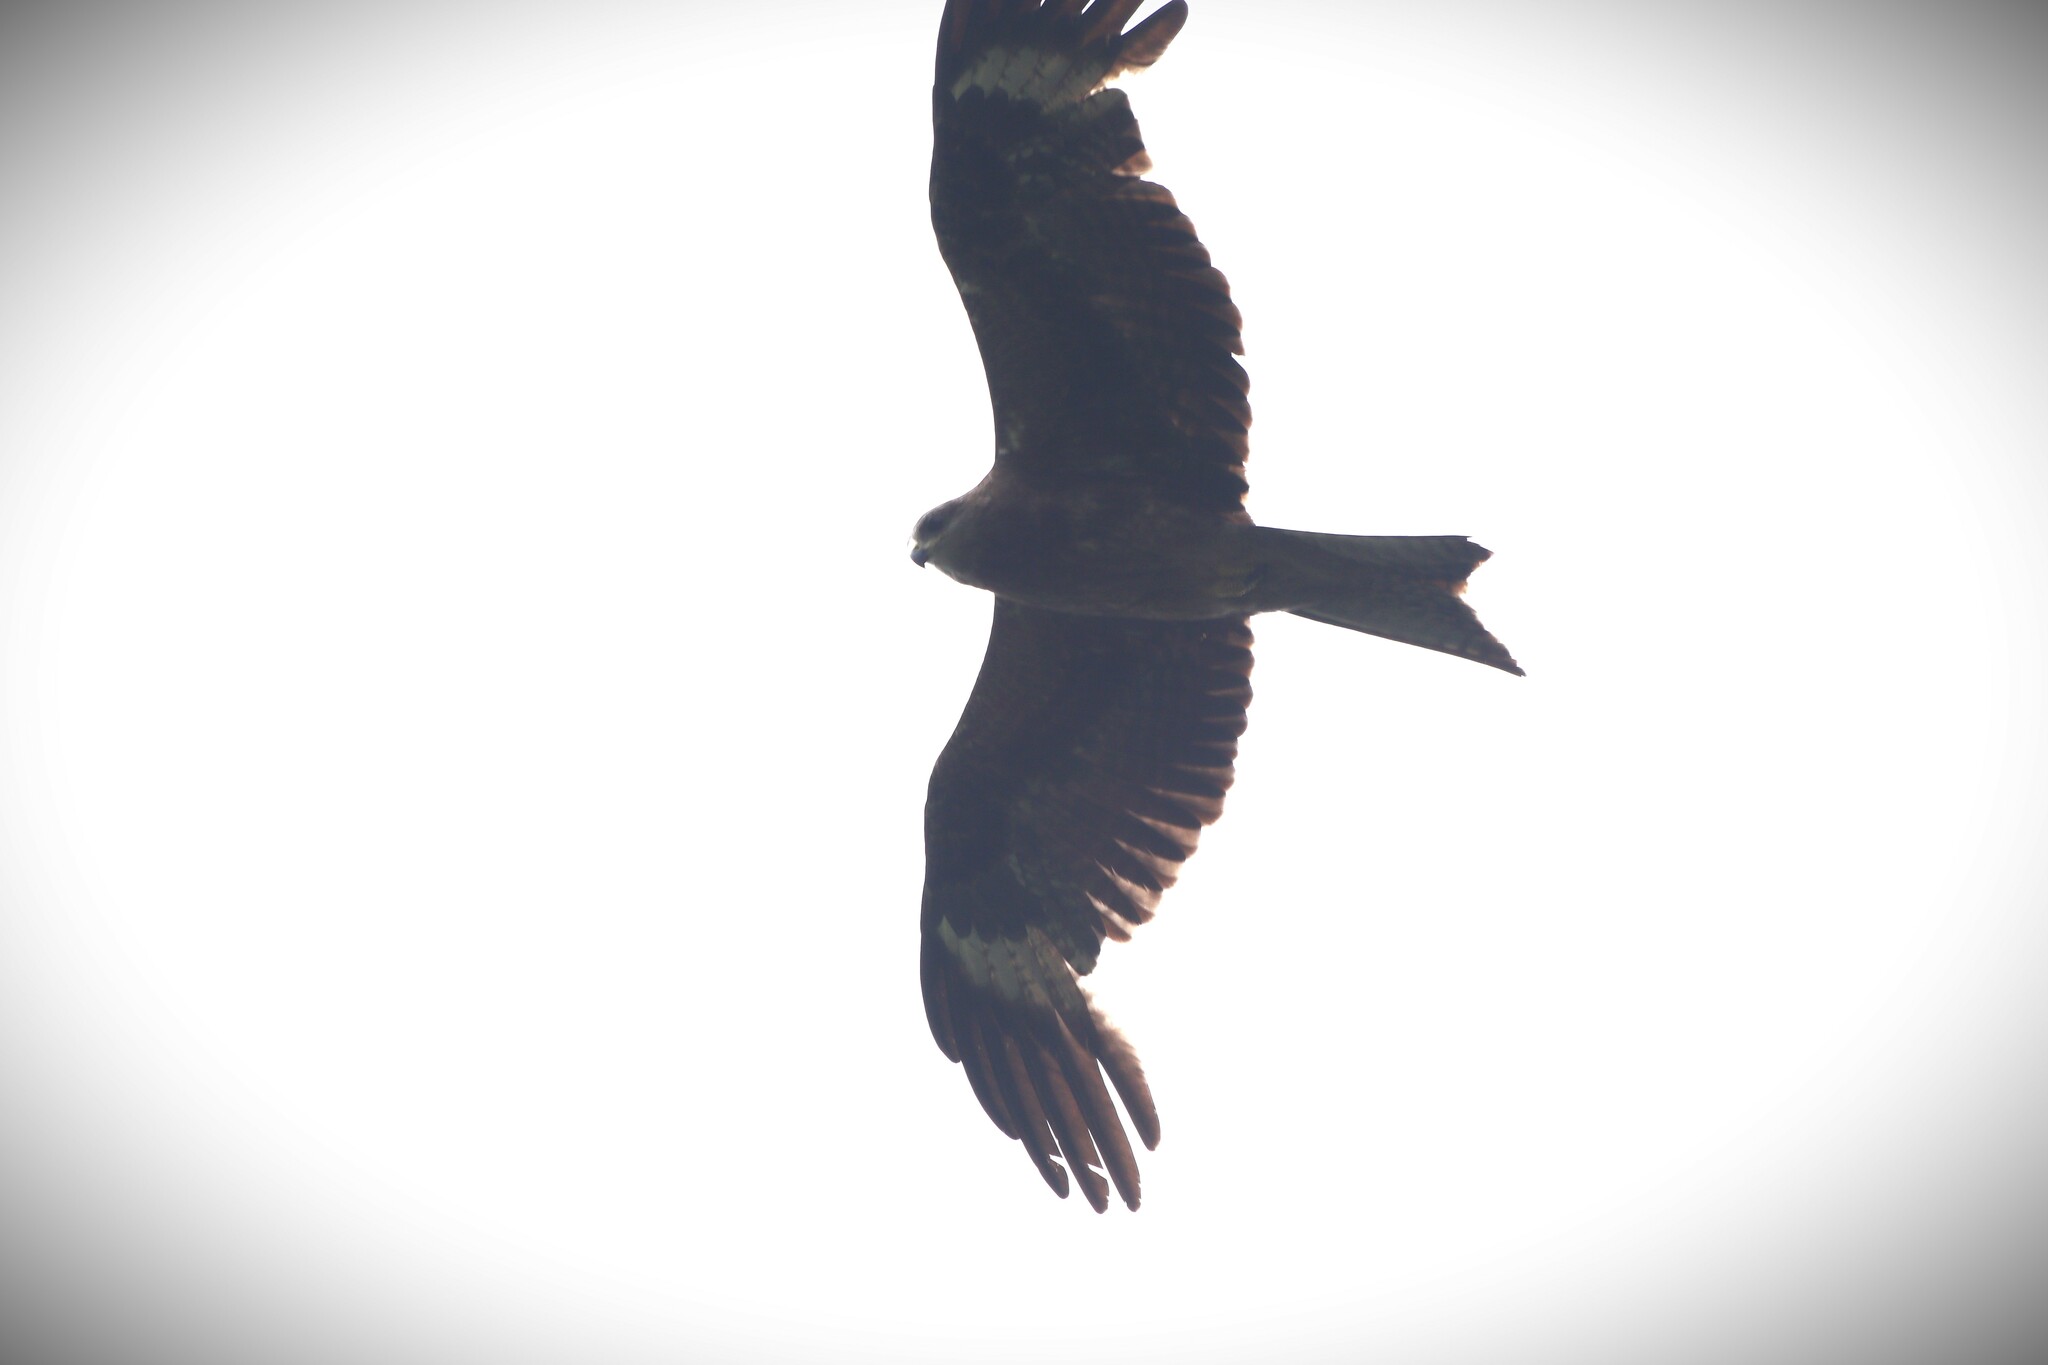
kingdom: Animalia
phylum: Chordata
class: Aves
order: Accipitriformes
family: Accipitridae
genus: Milvus
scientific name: Milvus migrans
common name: Black kite
